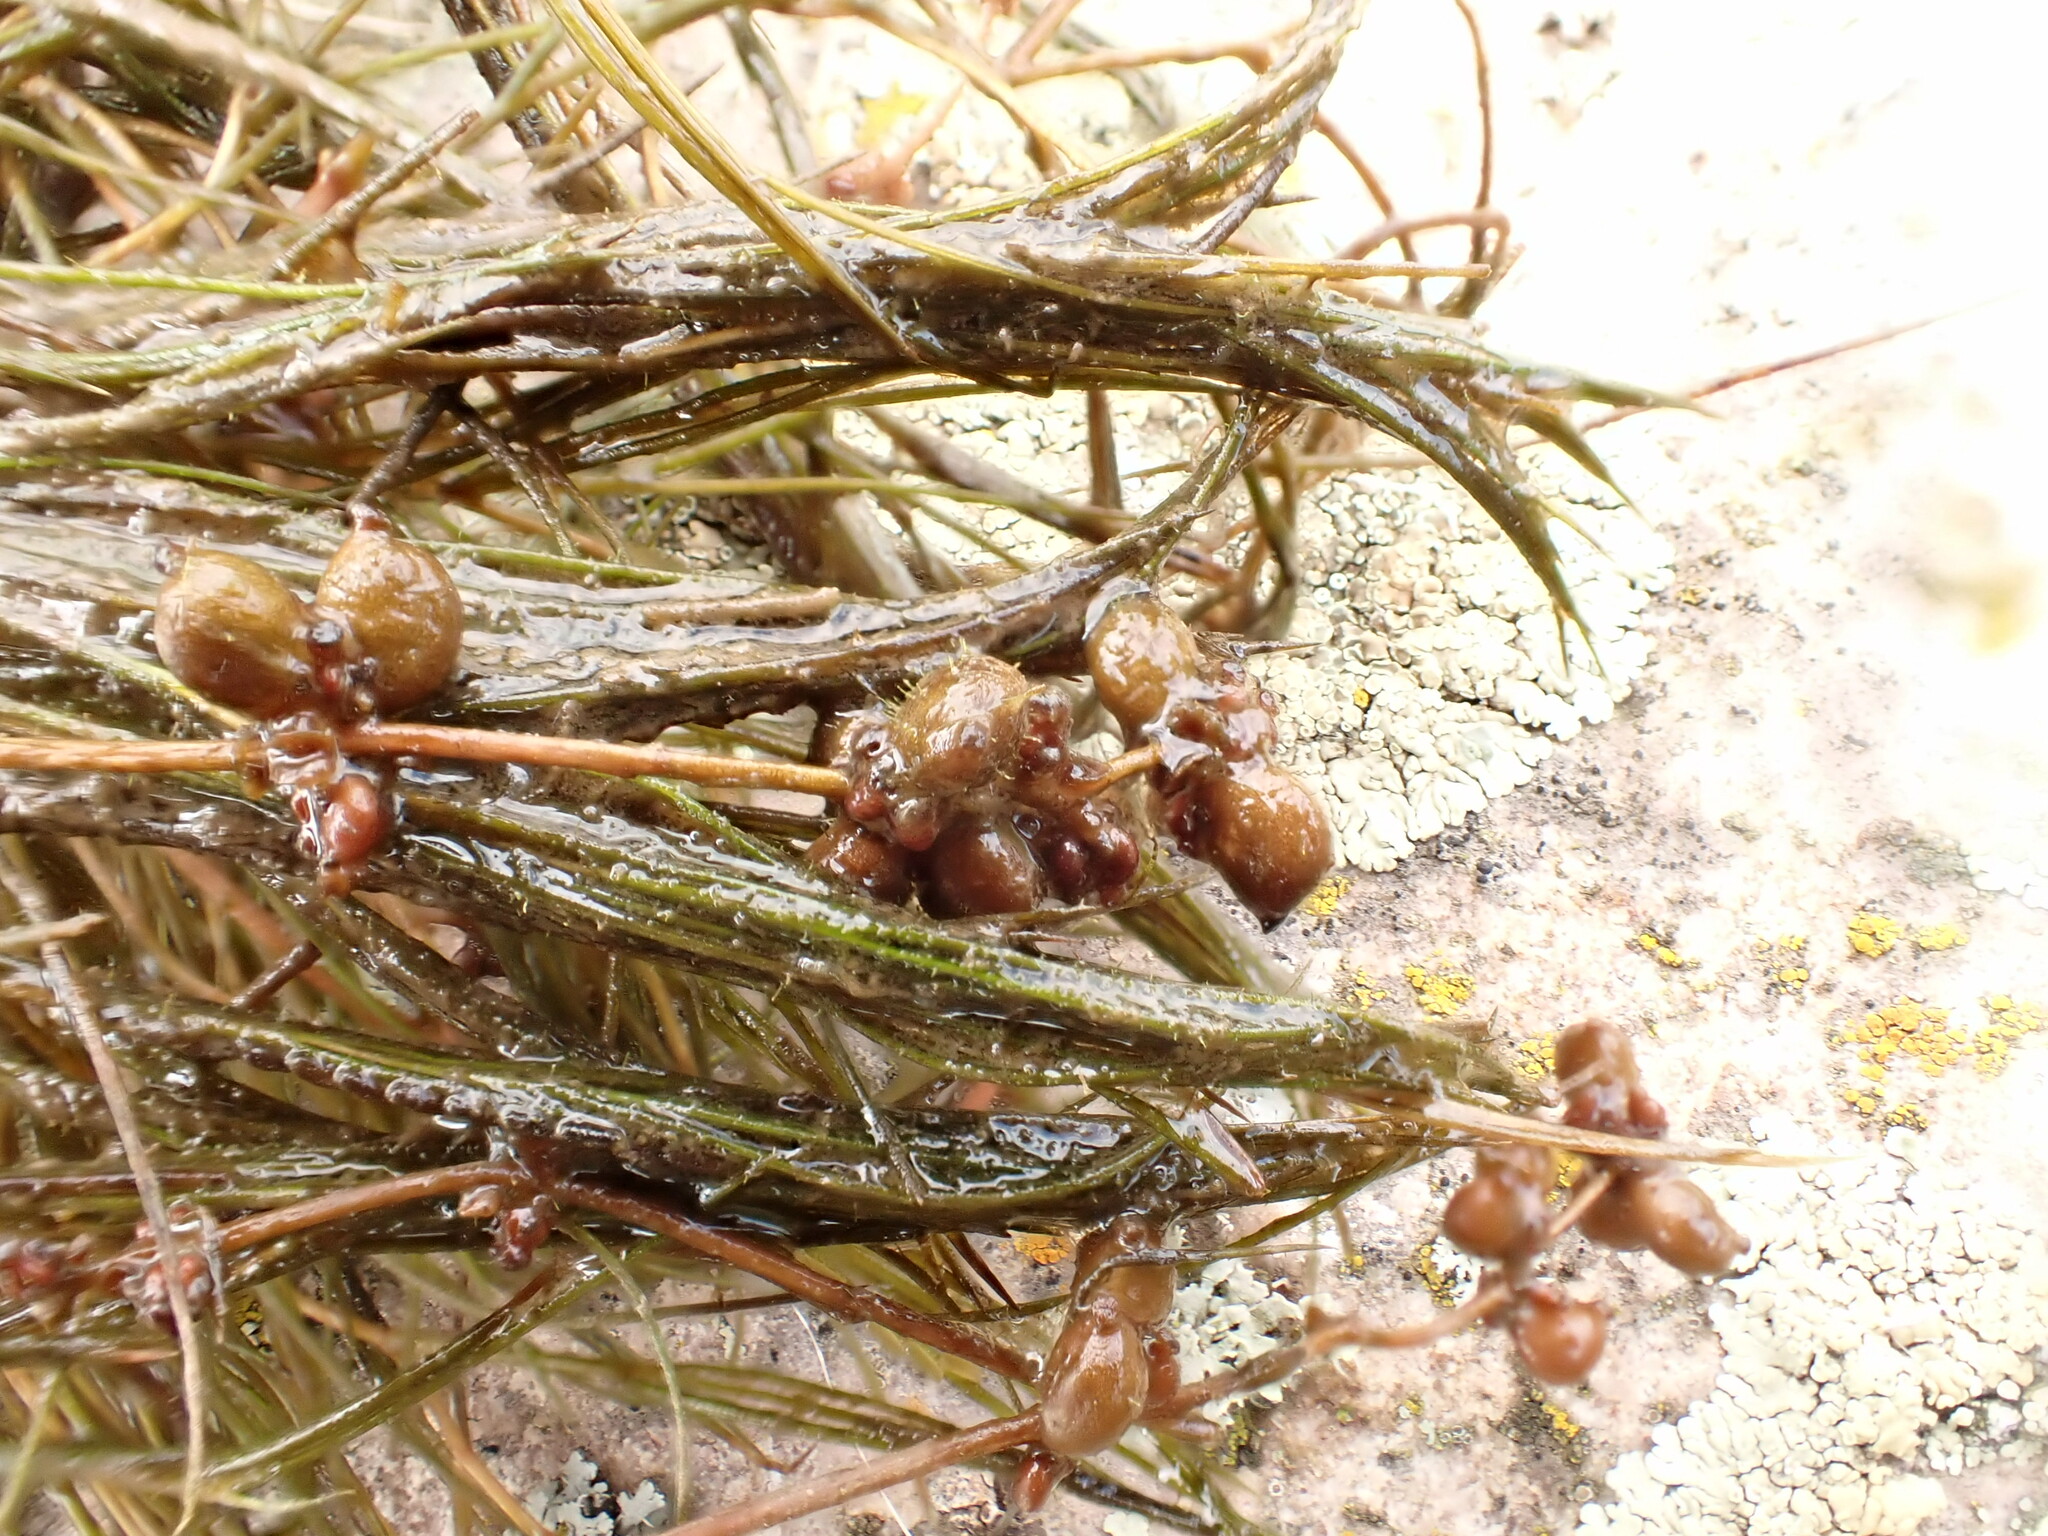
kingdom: Plantae
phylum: Tracheophyta
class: Liliopsida
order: Alismatales
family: Potamogetonaceae
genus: Stuckenia
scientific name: Stuckenia pectinata
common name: Sago pondweed
